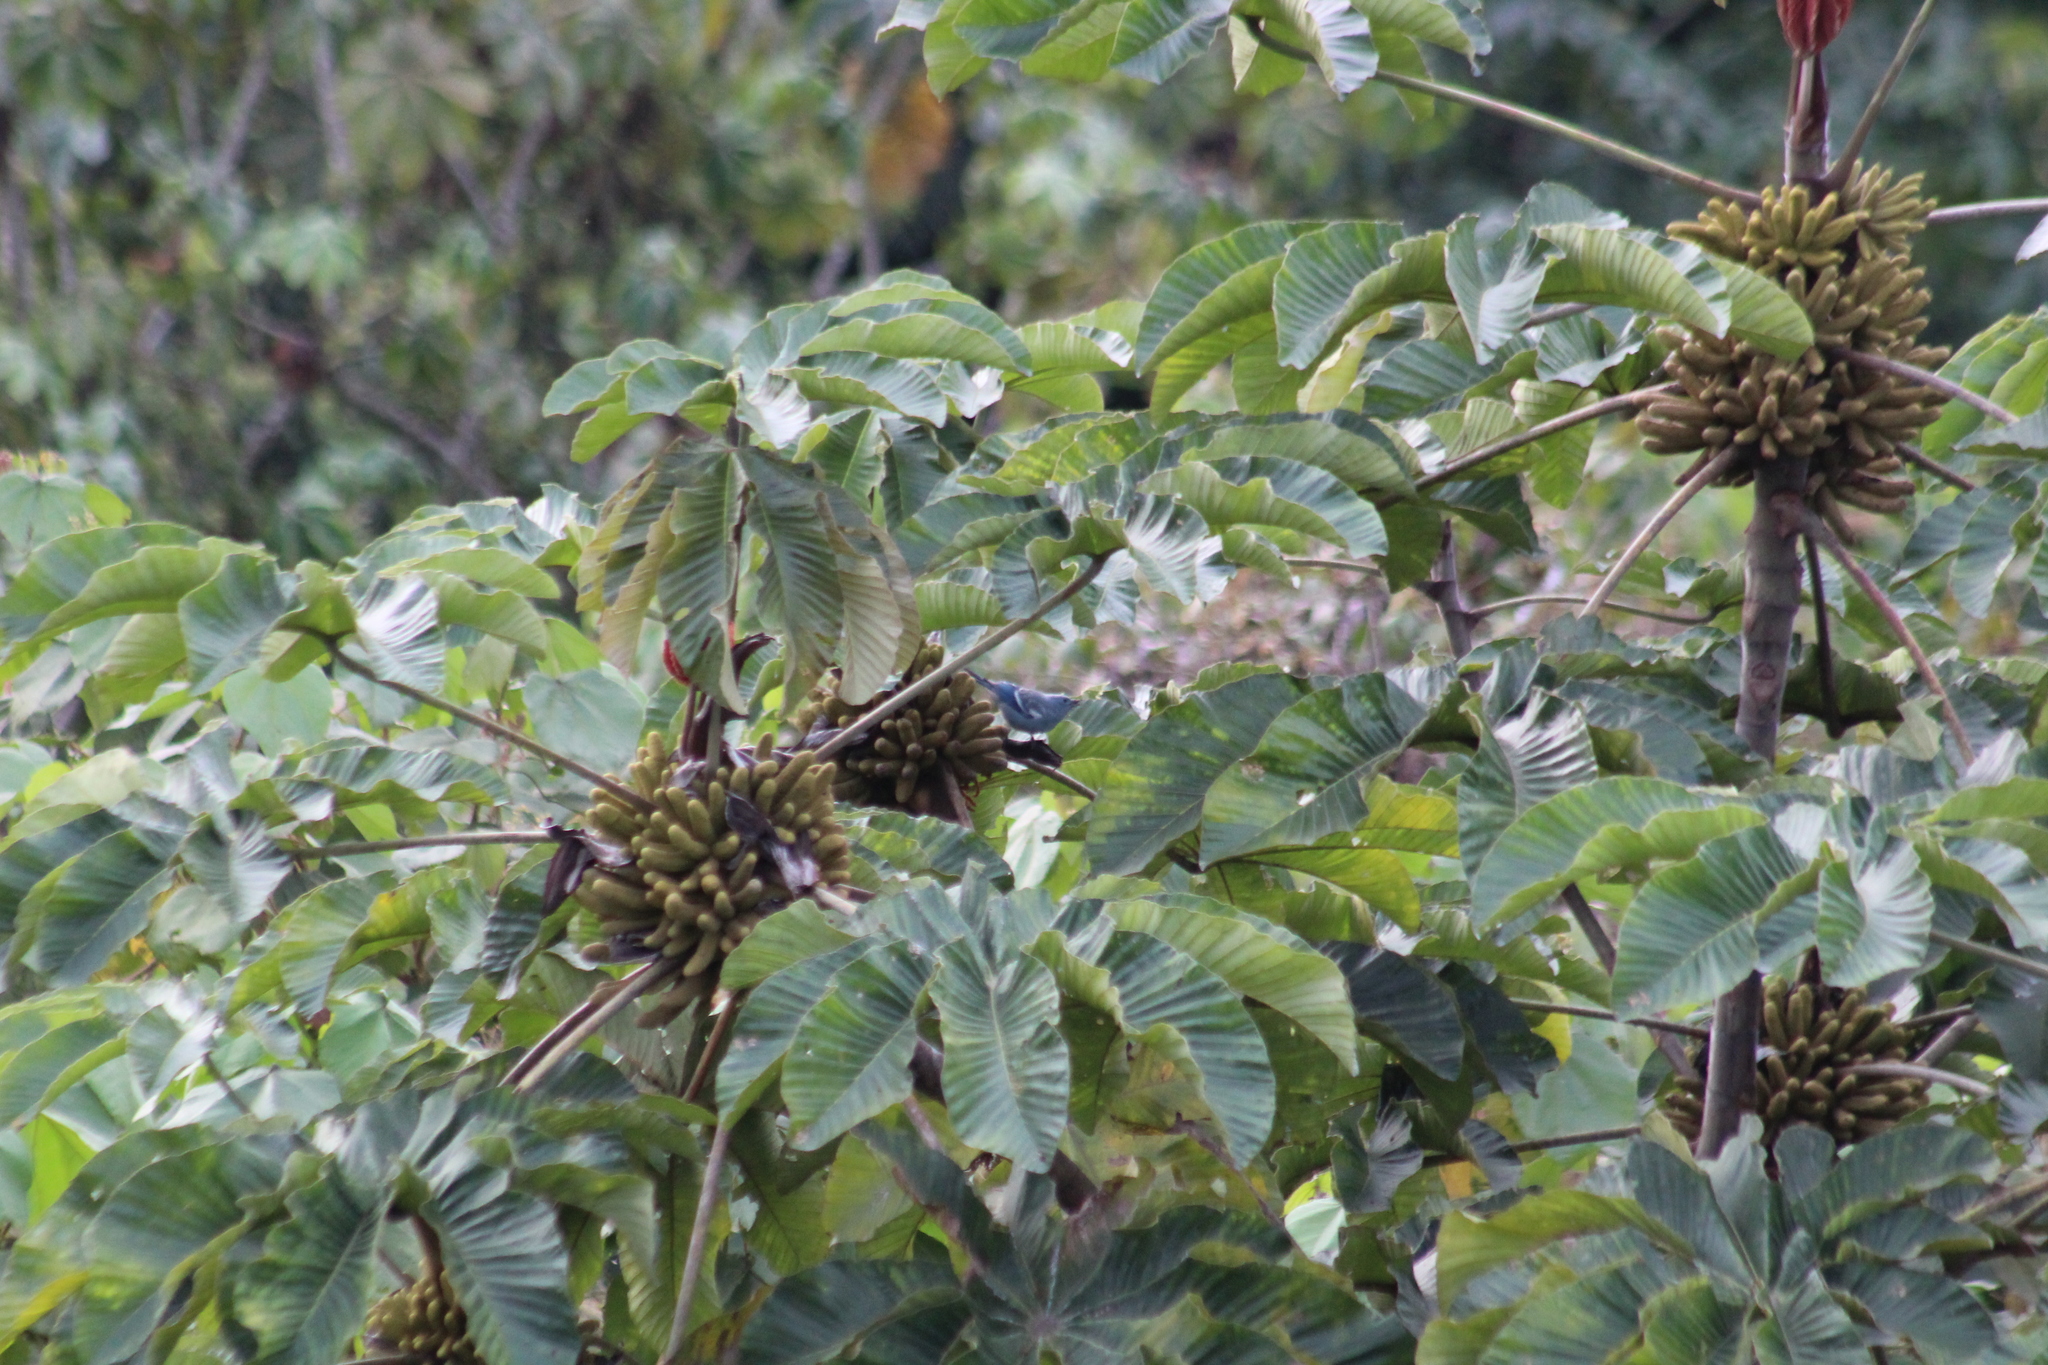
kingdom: Animalia
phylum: Chordata
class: Aves
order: Passeriformes
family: Thraupidae
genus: Thraupis
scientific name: Thraupis episcopus
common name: Blue-grey tanager
